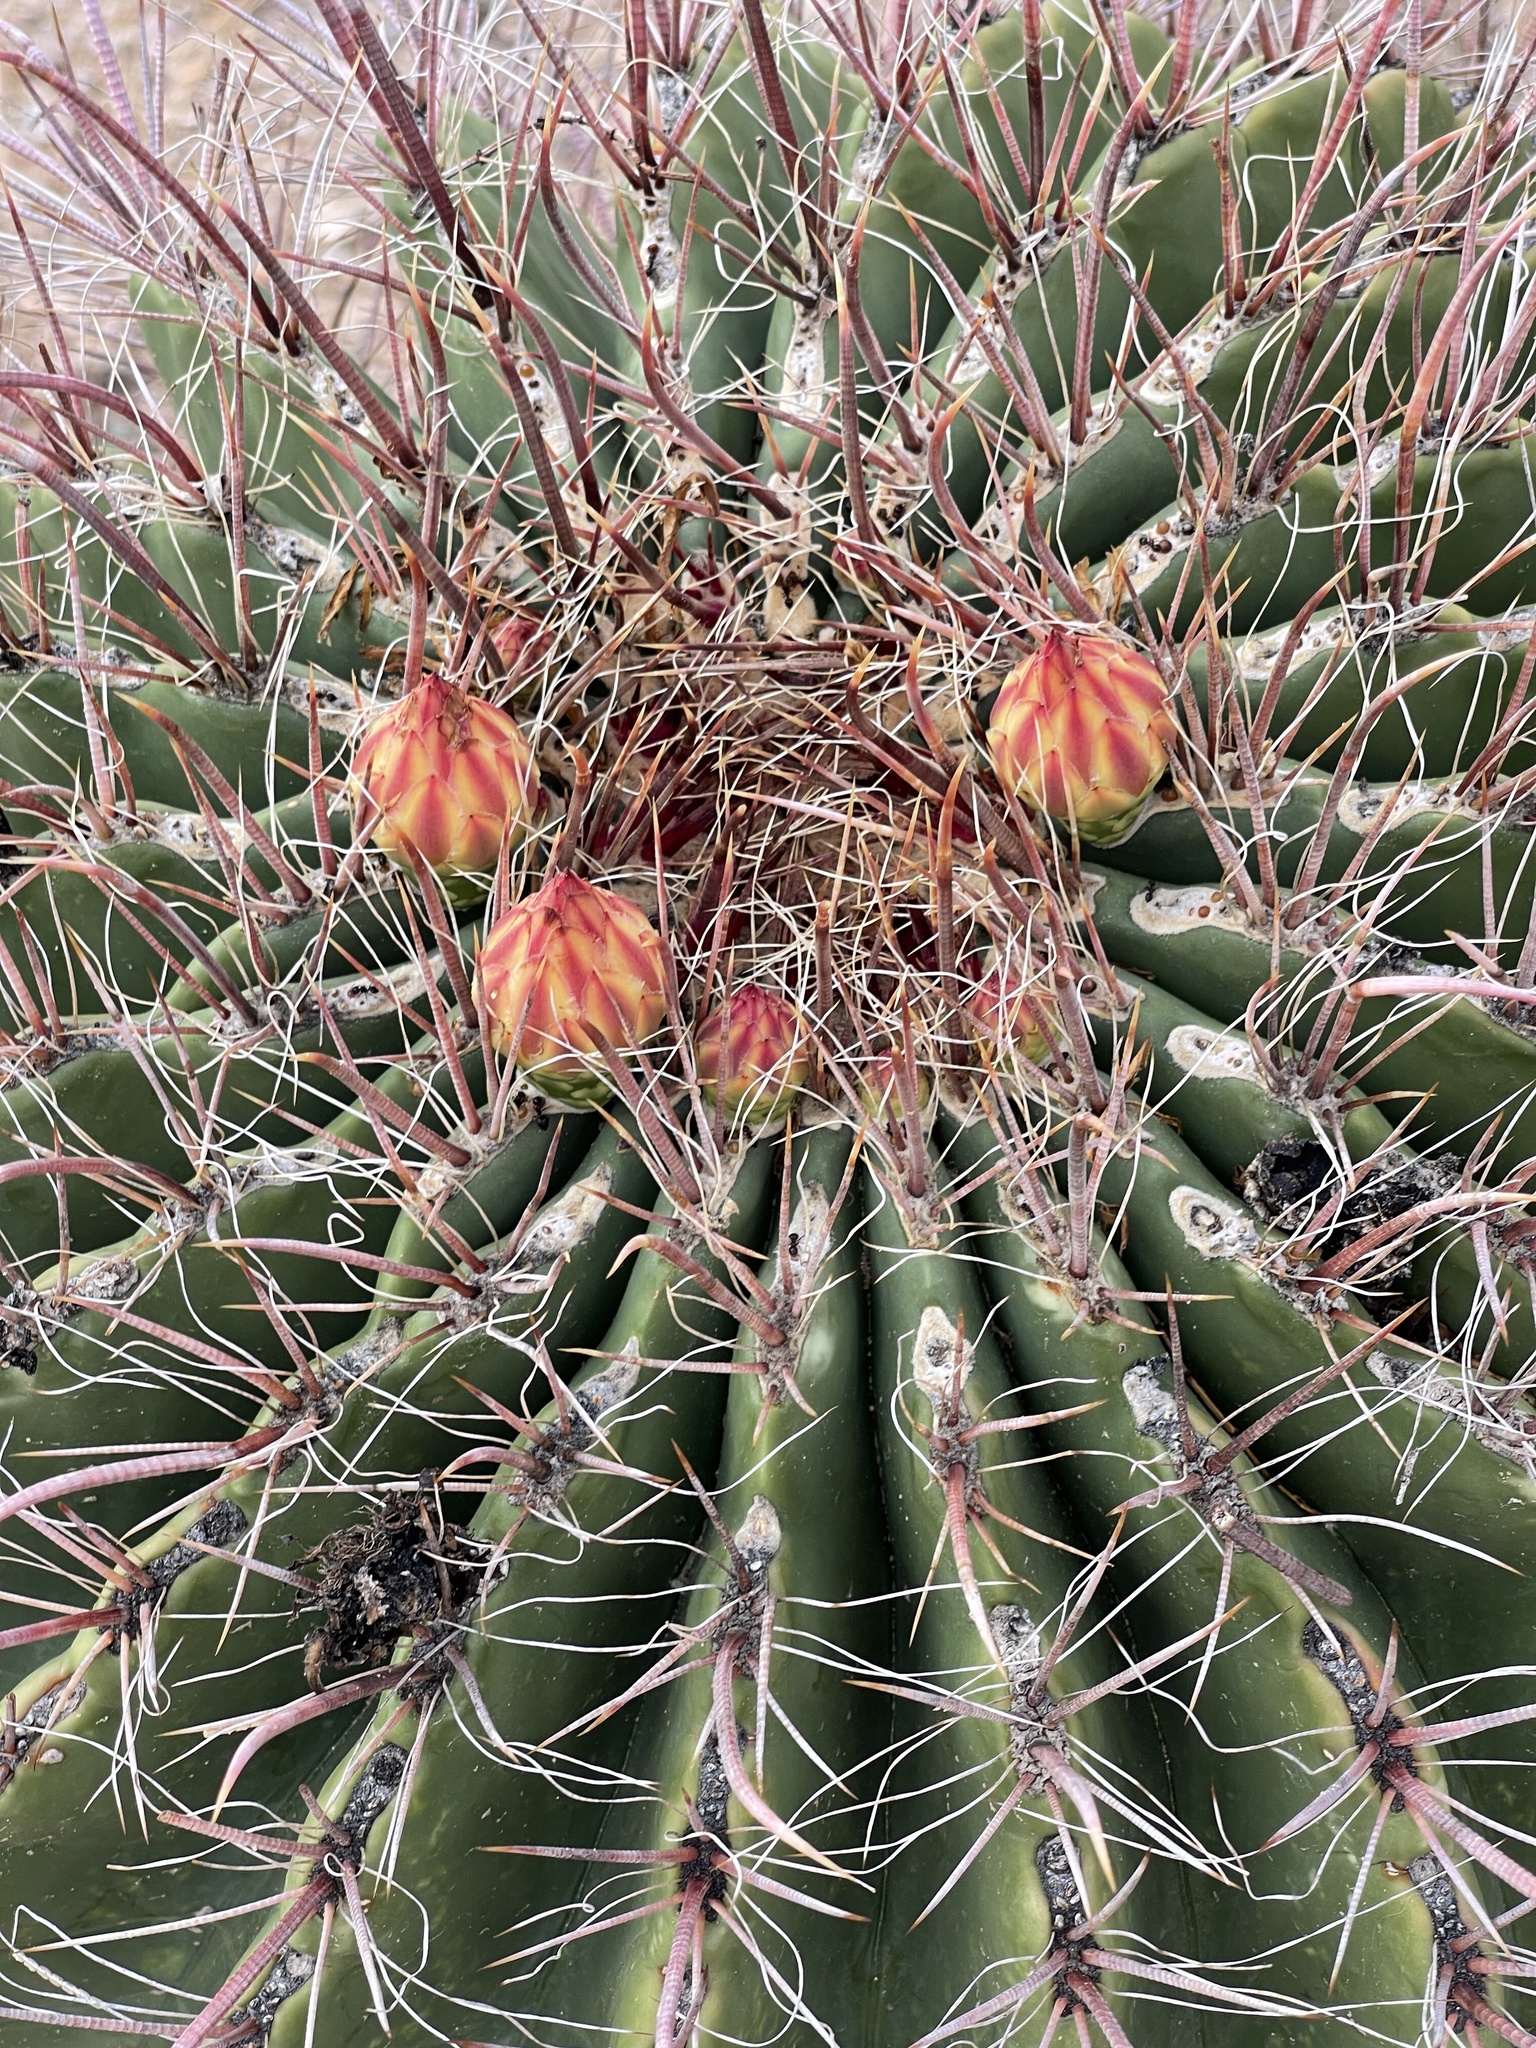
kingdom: Plantae
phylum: Tracheophyta
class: Magnoliopsida
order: Caryophyllales
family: Cactaceae
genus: Ferocactus
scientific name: Ferocactus wislizeni
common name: Candy barrel cactus
